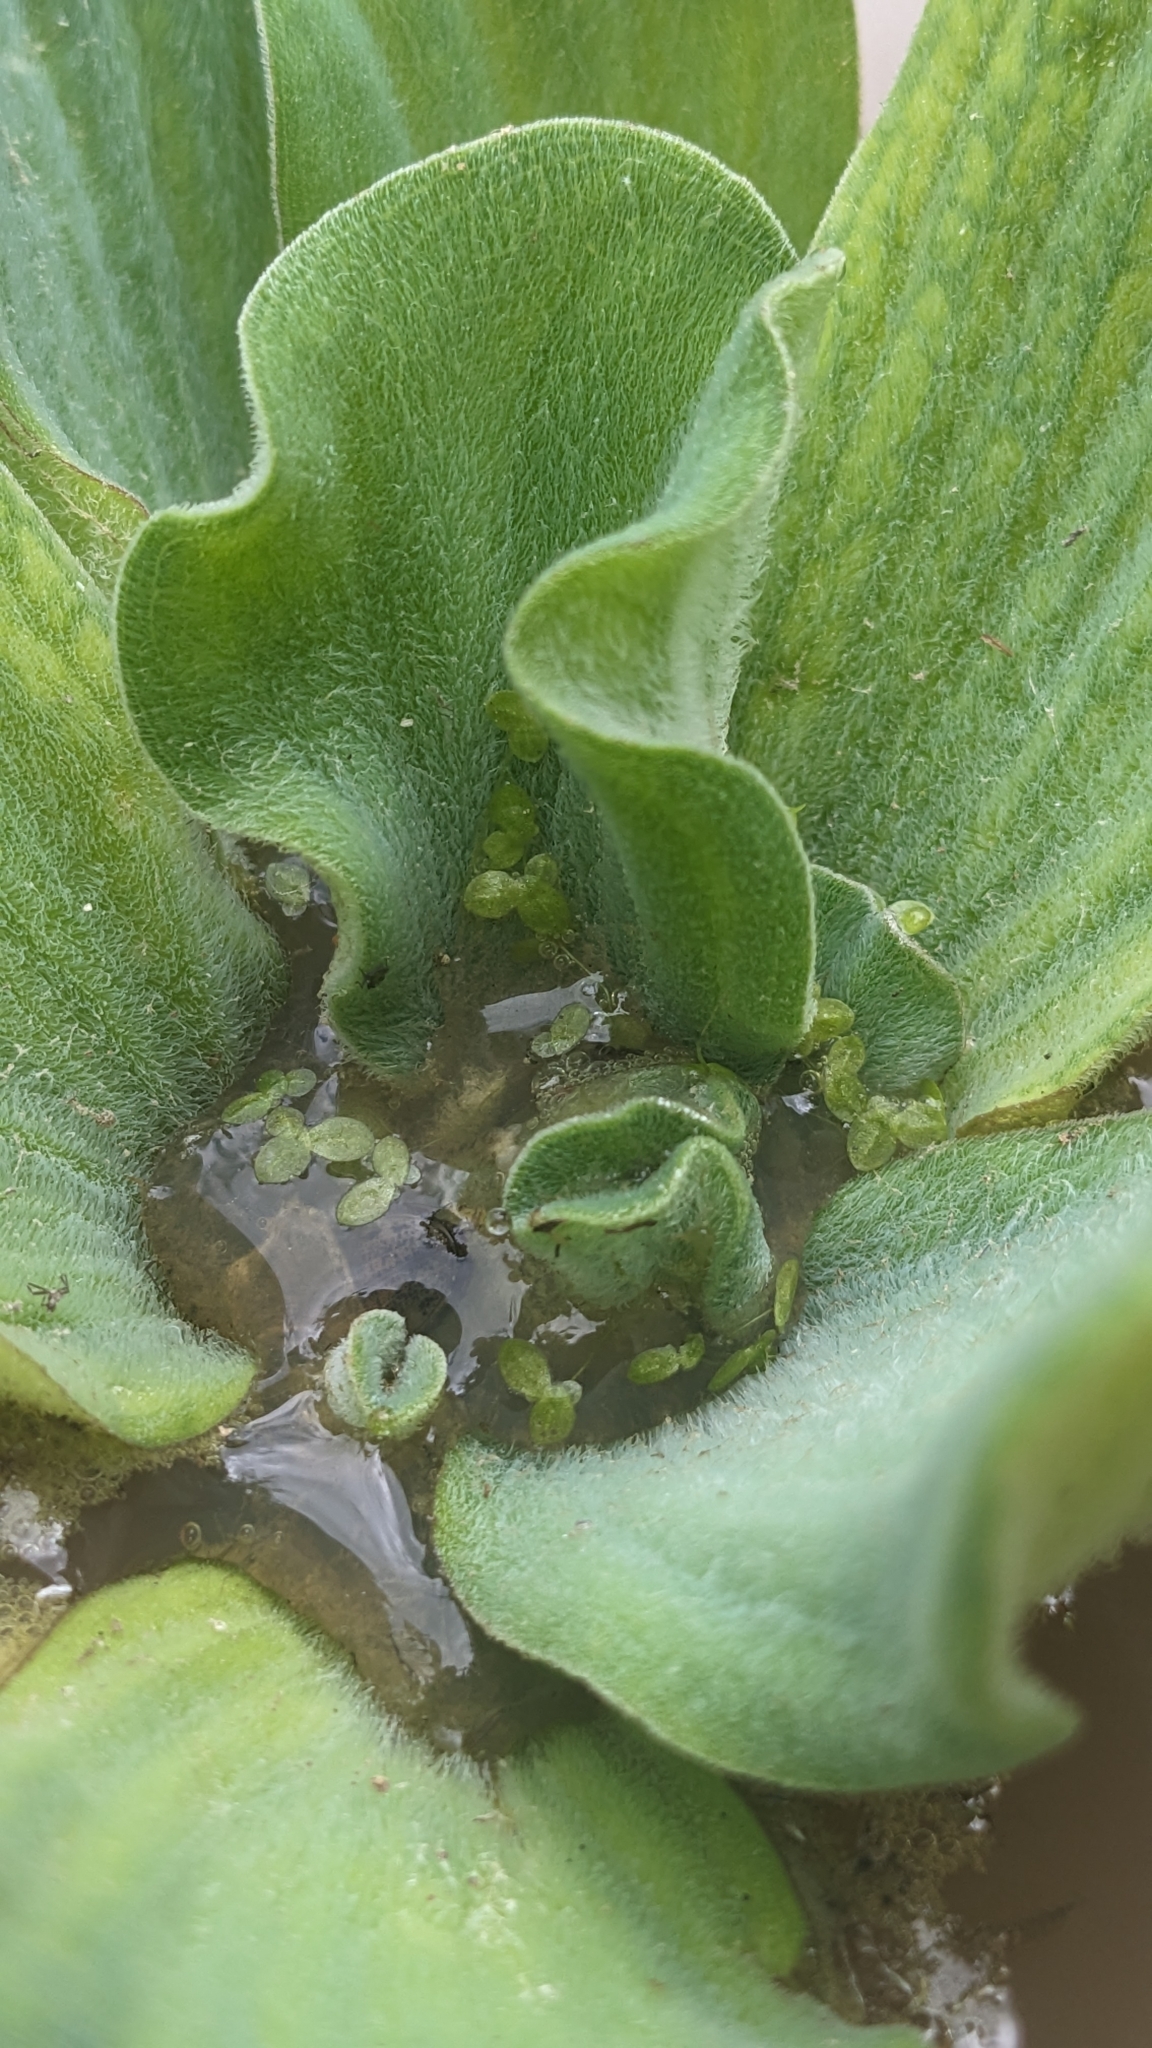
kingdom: Plantae
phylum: Tracheophyta
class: Liliopsida
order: Alismatales
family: Araceae
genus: Pistia
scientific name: Pistia stratiotes
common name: Water lettuce
